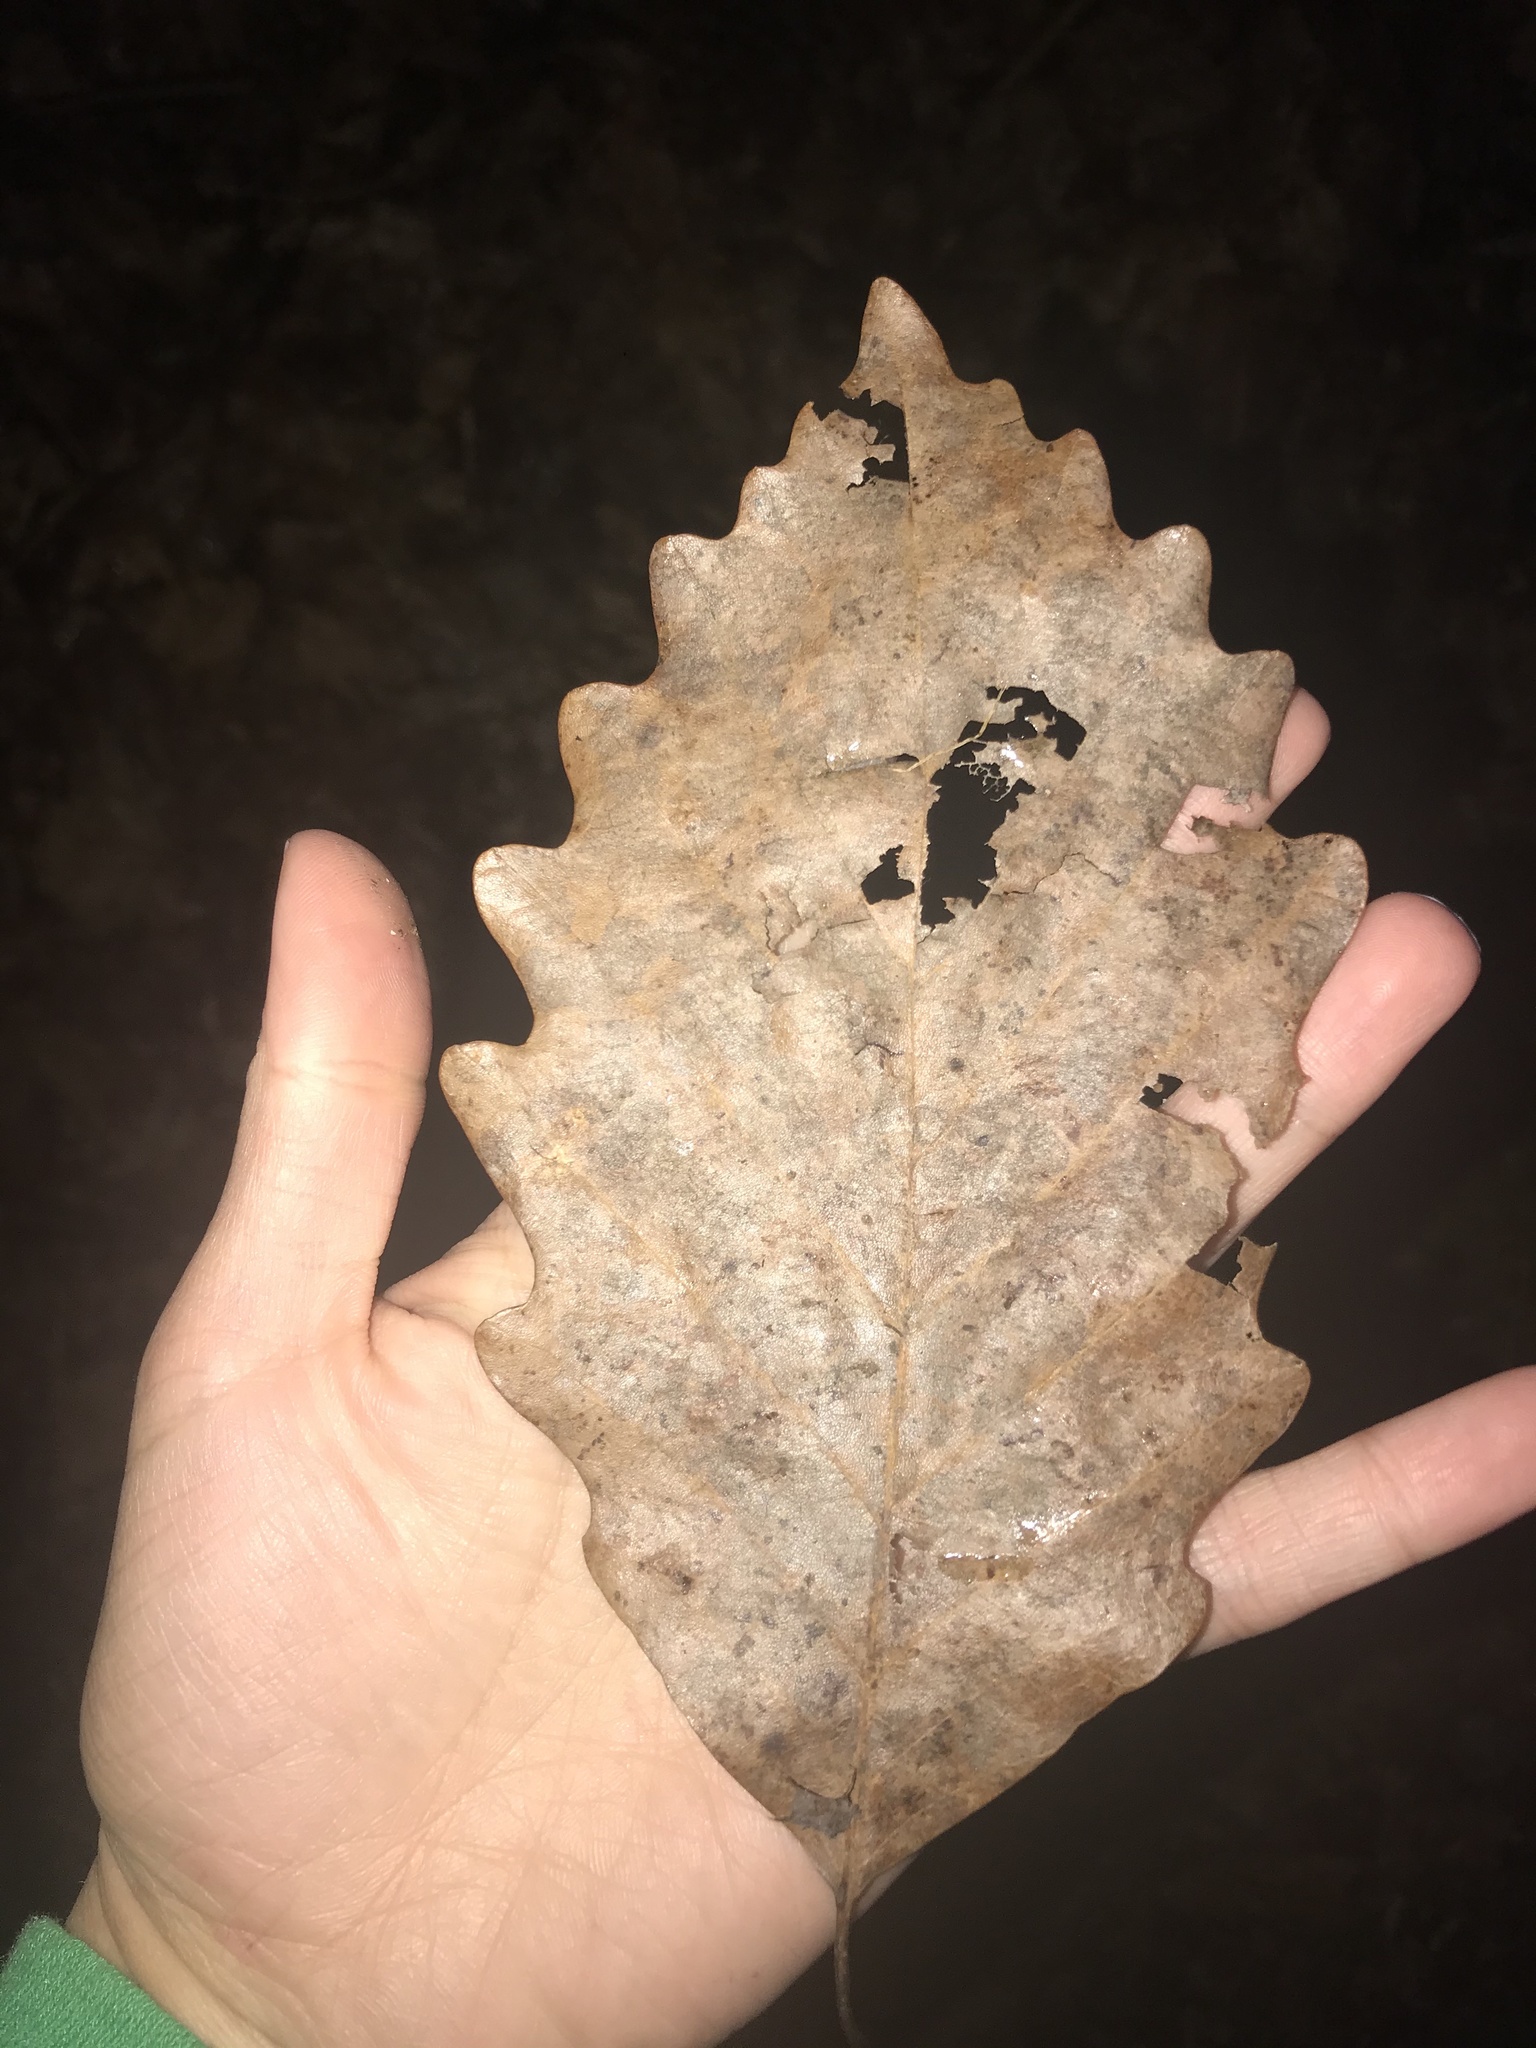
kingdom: Plantae
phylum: Tracheophyta
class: Magnoliopsida
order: Fagales
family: Fagaceae
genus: Quercus
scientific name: Quercus montana
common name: Chestnut oak
